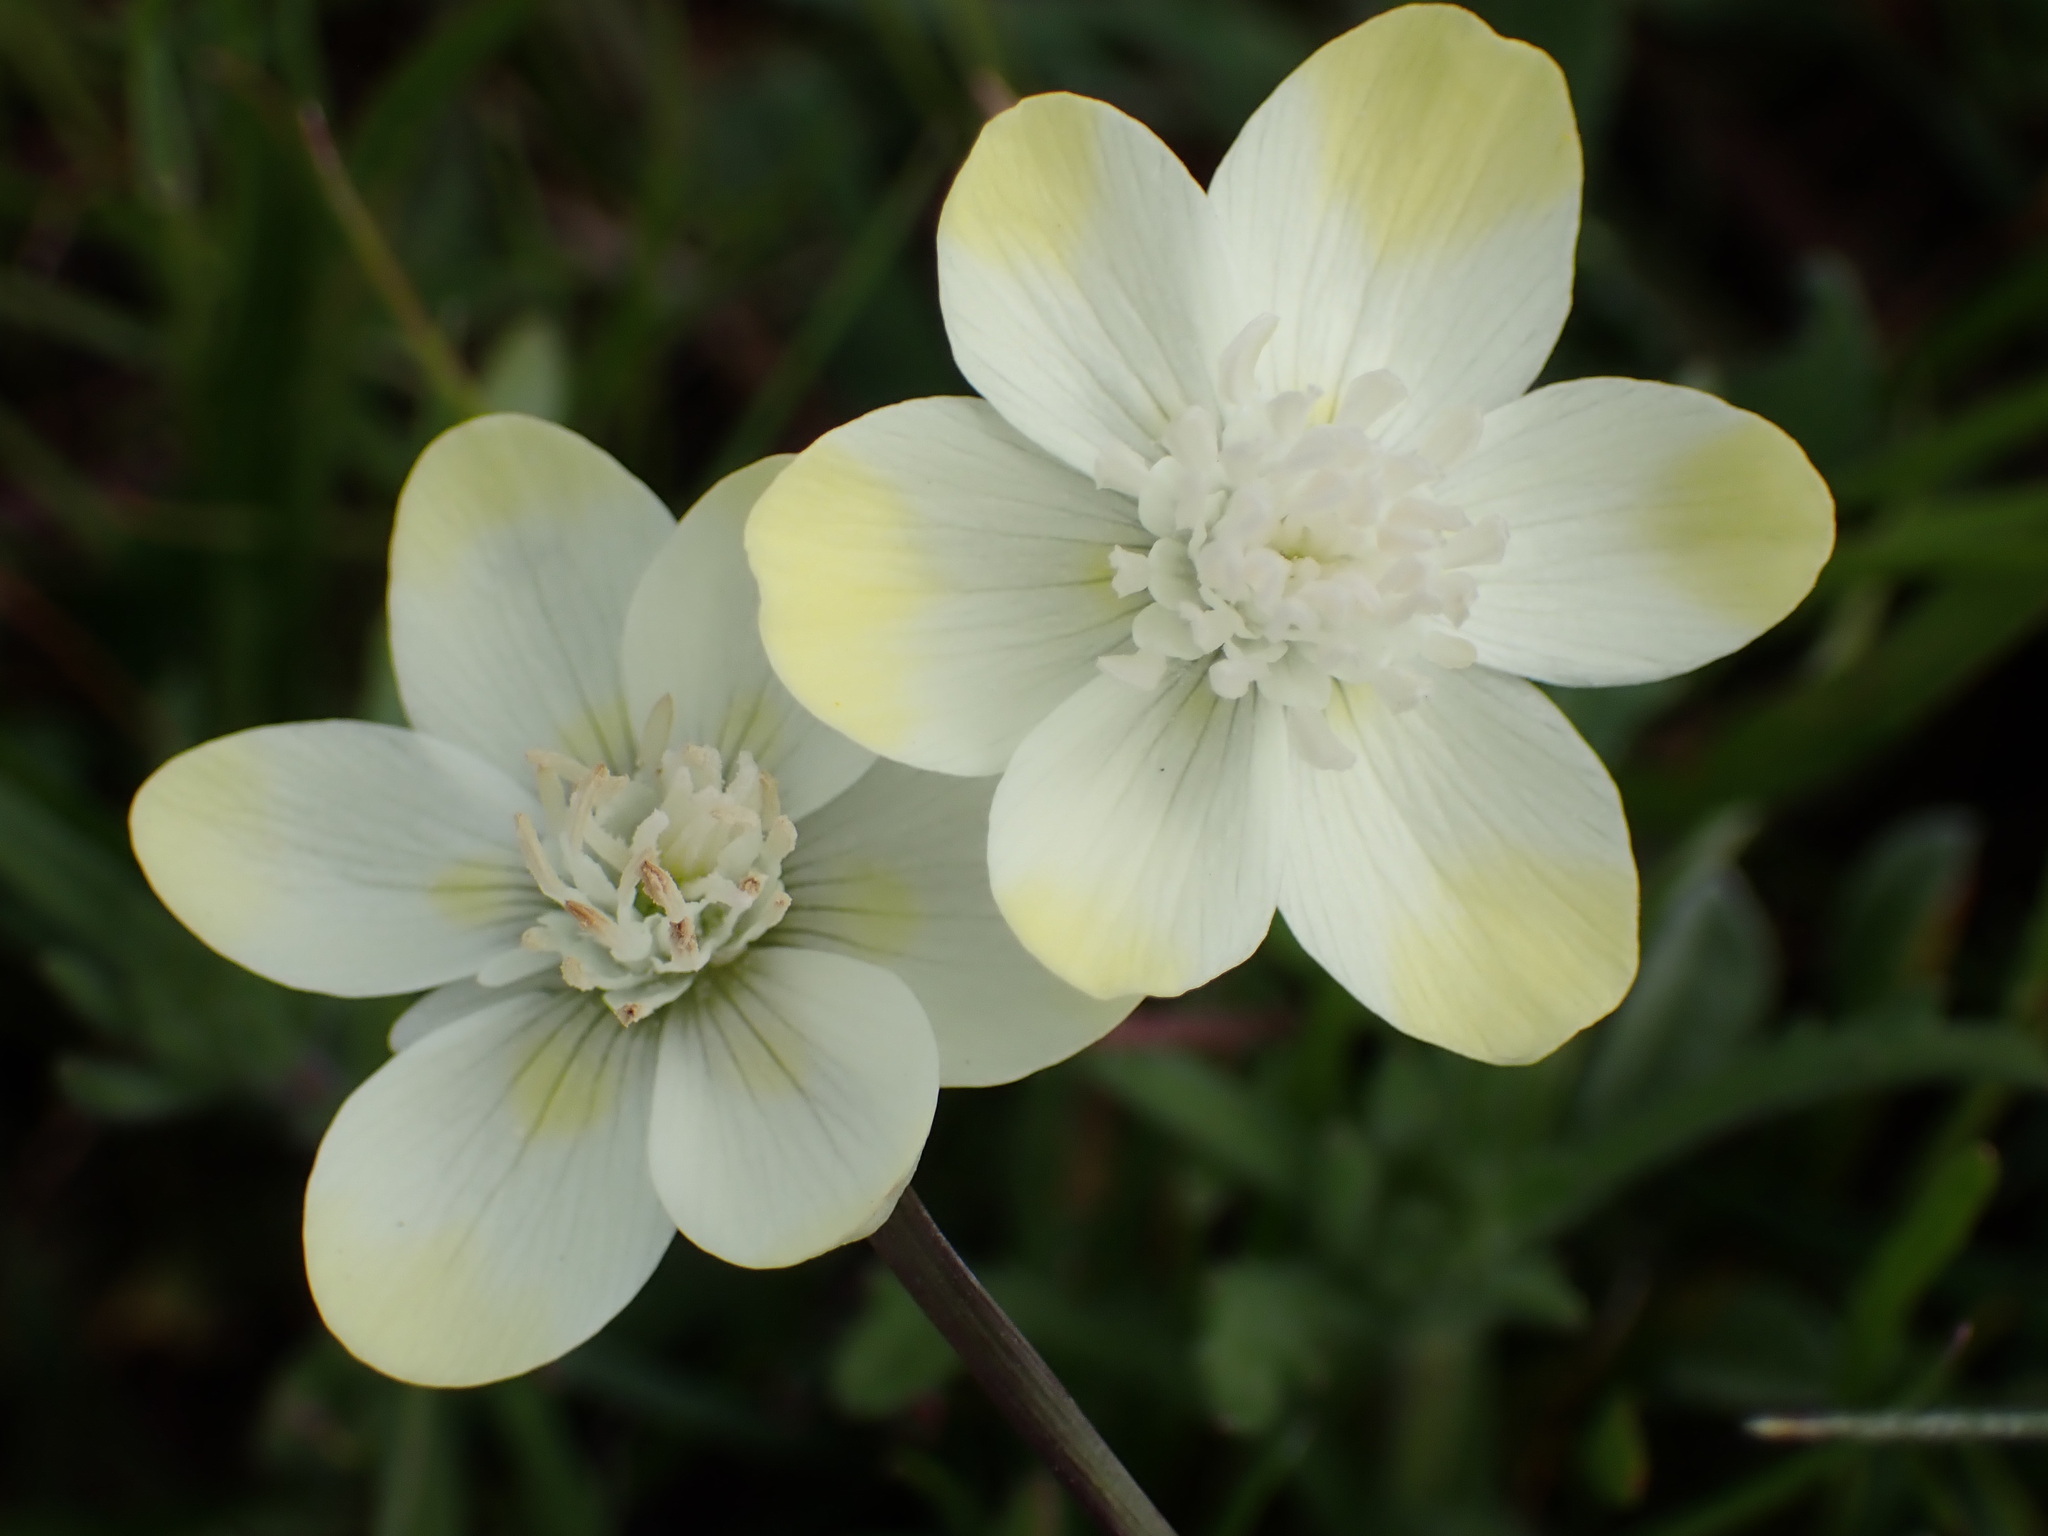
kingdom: Plantae
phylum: Tracheophyta
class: Magnoliopsida
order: Ranunculales
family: Papaveraceae
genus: Platystemon
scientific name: Platystemon californicus
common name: Cream-cups
